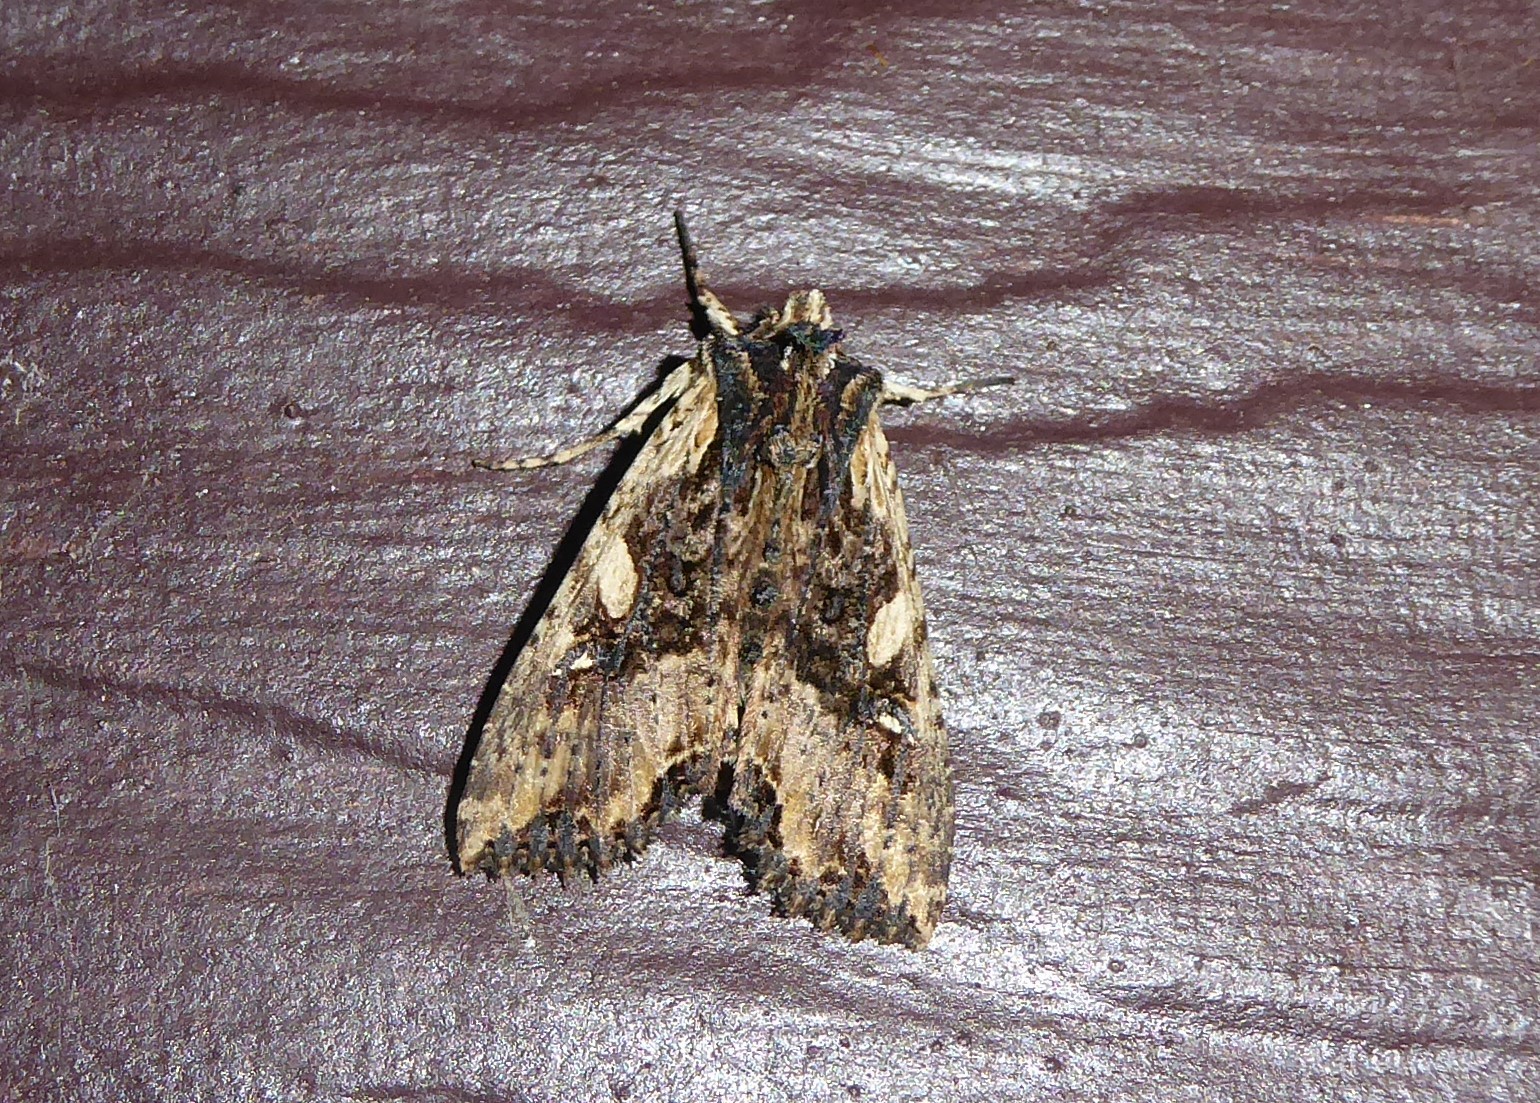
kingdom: Animalia
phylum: Arthropoda
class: Insecta
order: Lepidoptera
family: Noctuidae
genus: Meterana
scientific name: Meterana stipata
